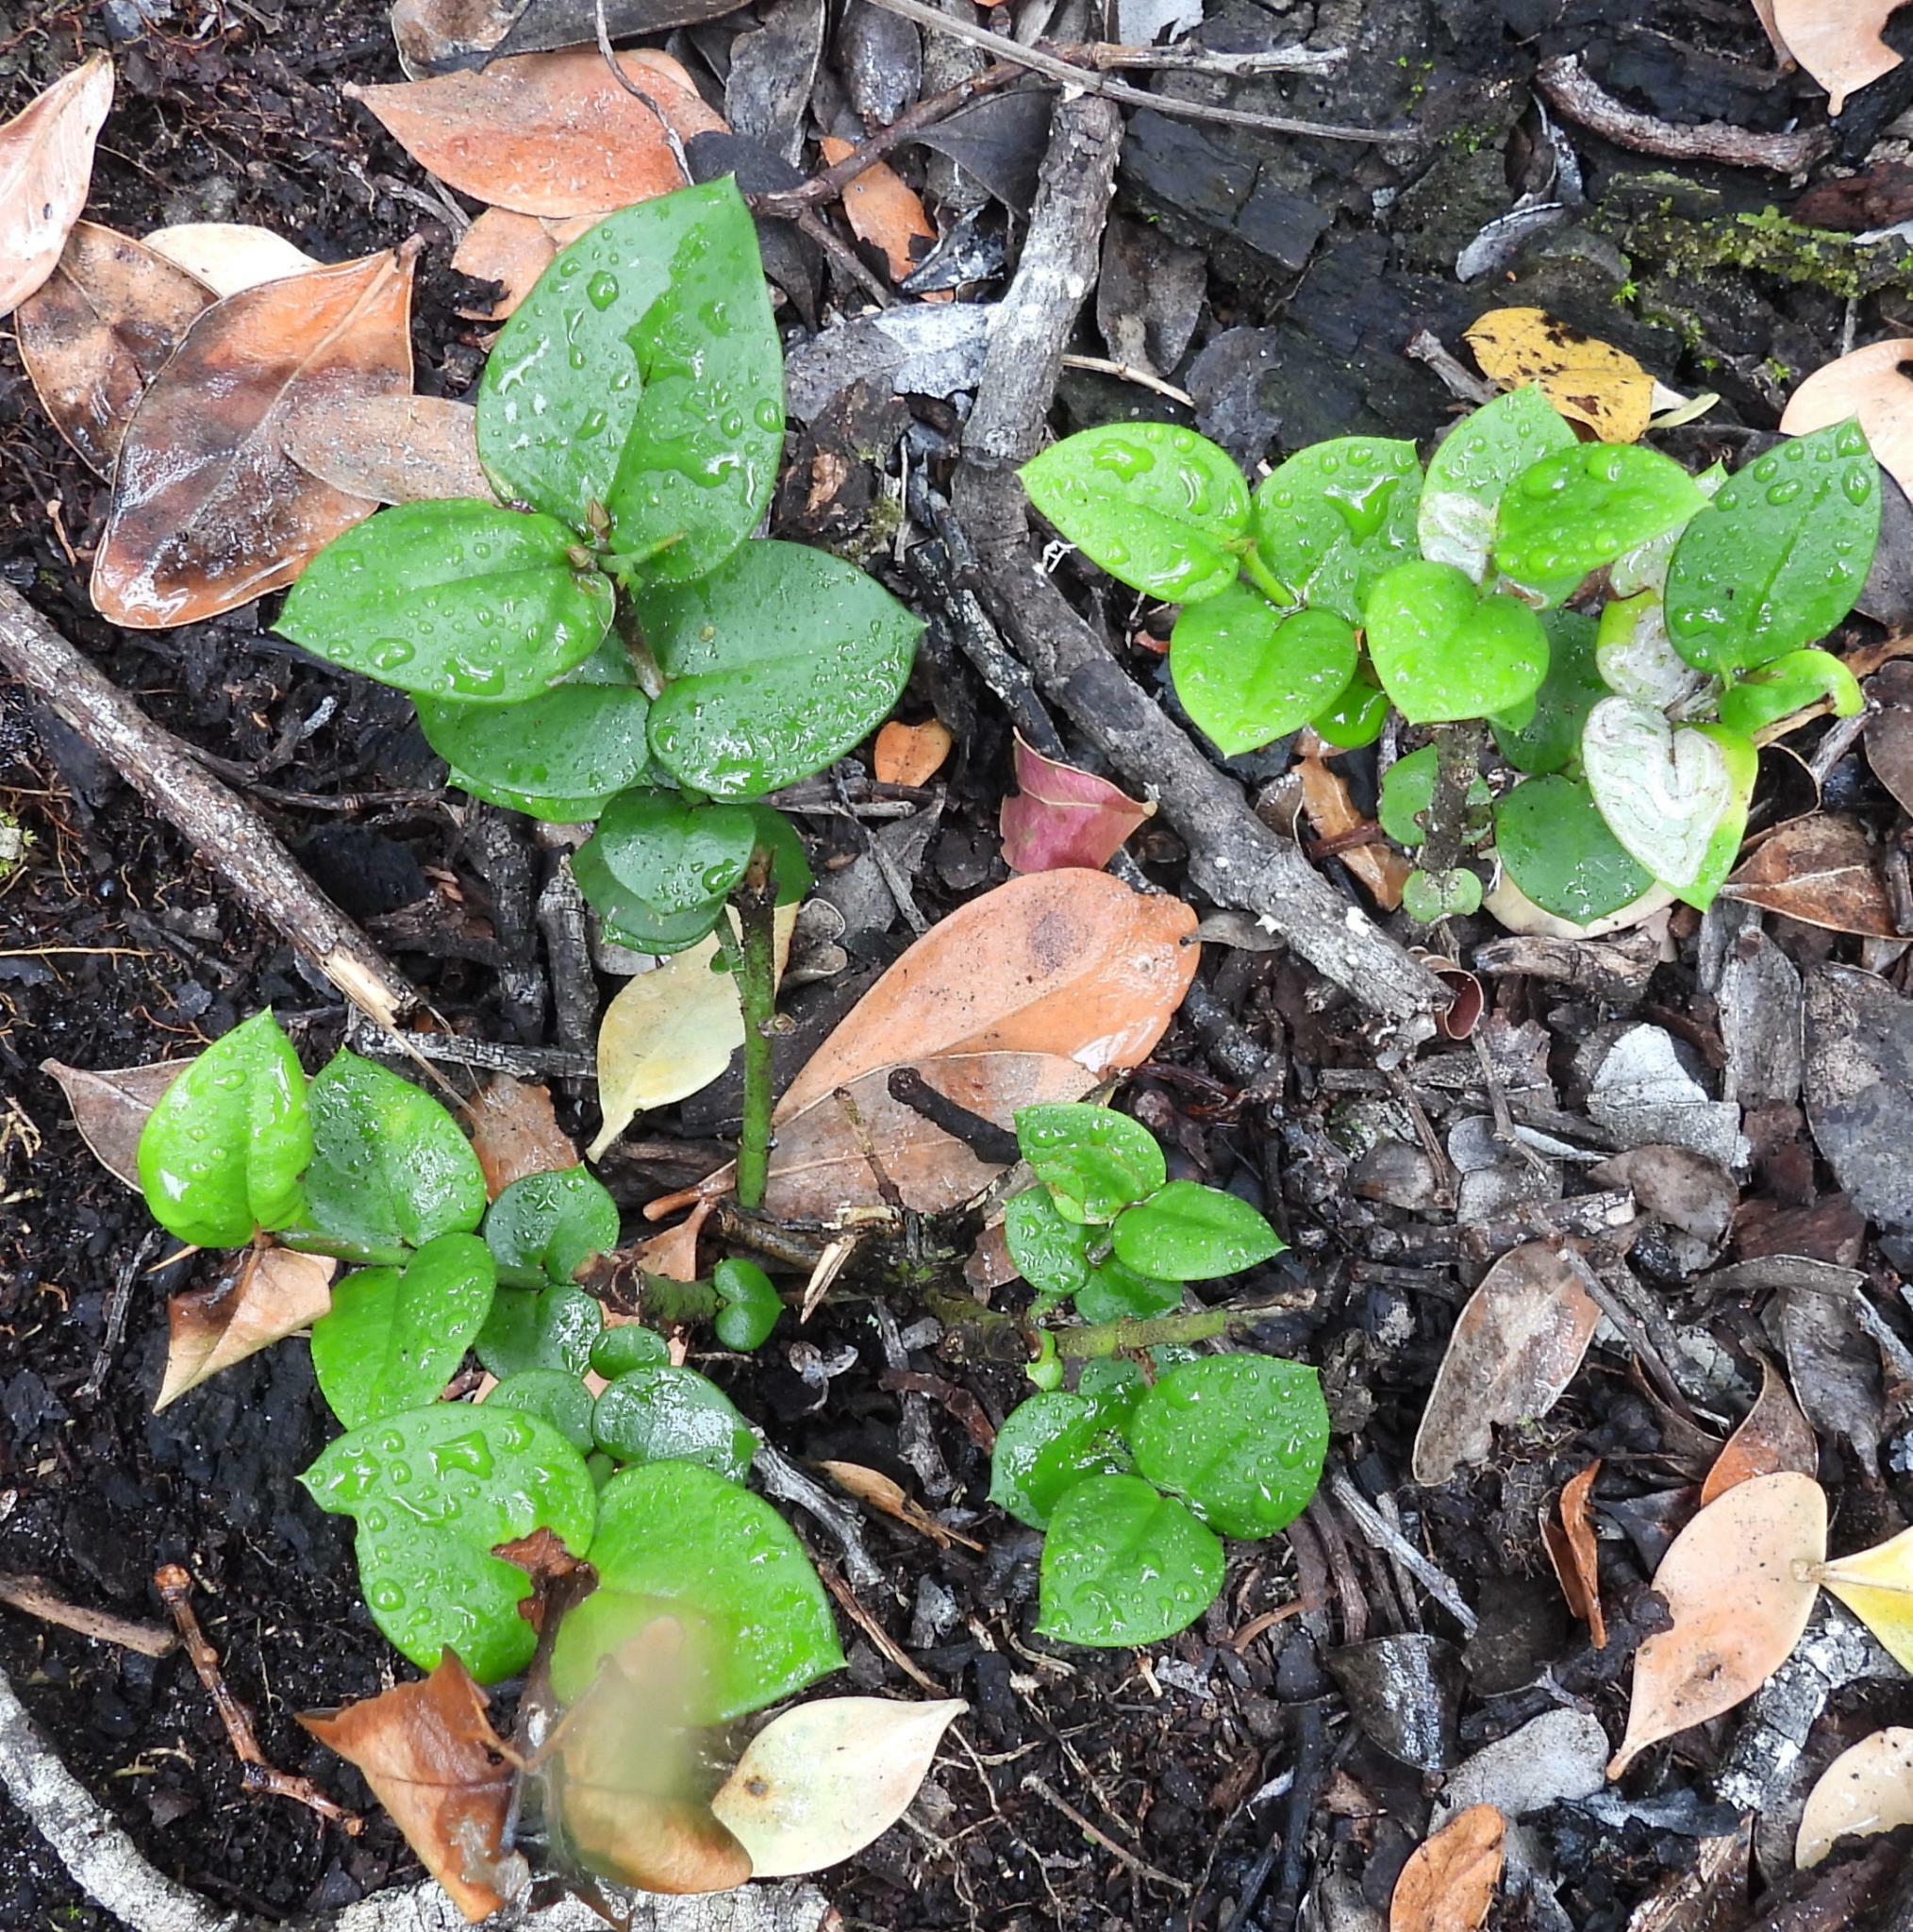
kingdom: Plantae
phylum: Tracheophyta
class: Magnoliopsida
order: Gentianales
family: Apocynaceae
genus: Carissa
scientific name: Carissa bispinosa
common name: Forest num-num
